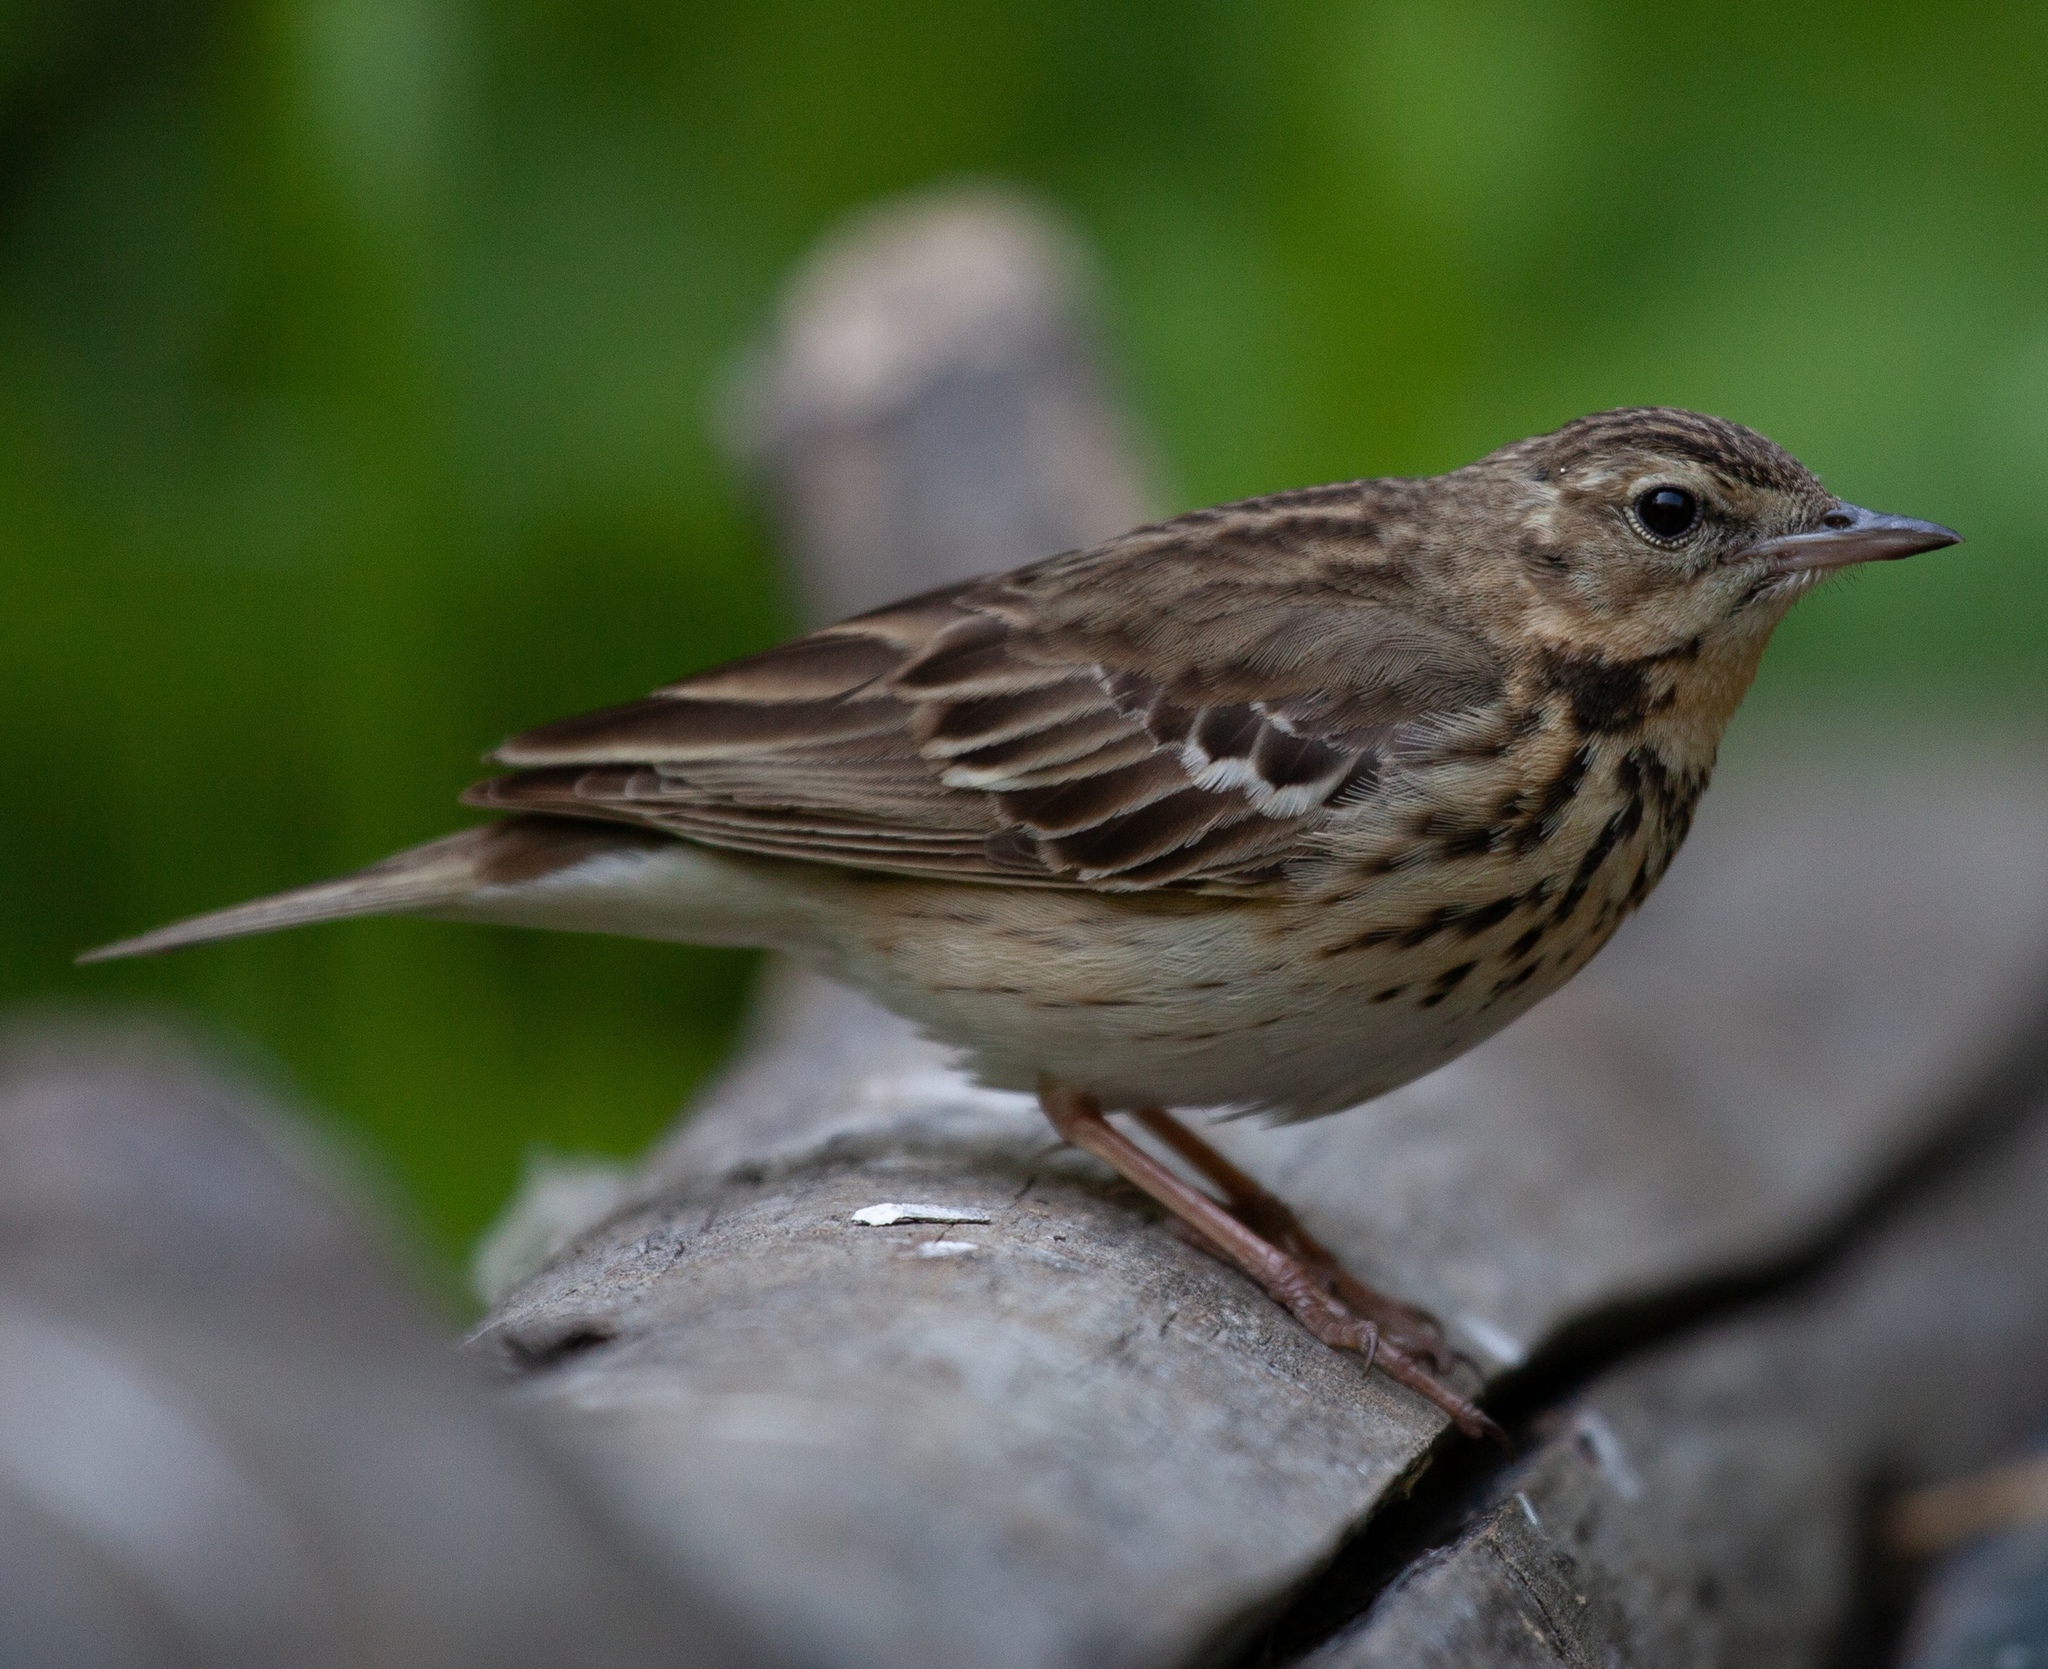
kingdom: Animalia
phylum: Chordata
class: Aves
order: Passeriformes
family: Motacillidae
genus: Anthus
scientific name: Anthus trivialis
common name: Tree pipit
